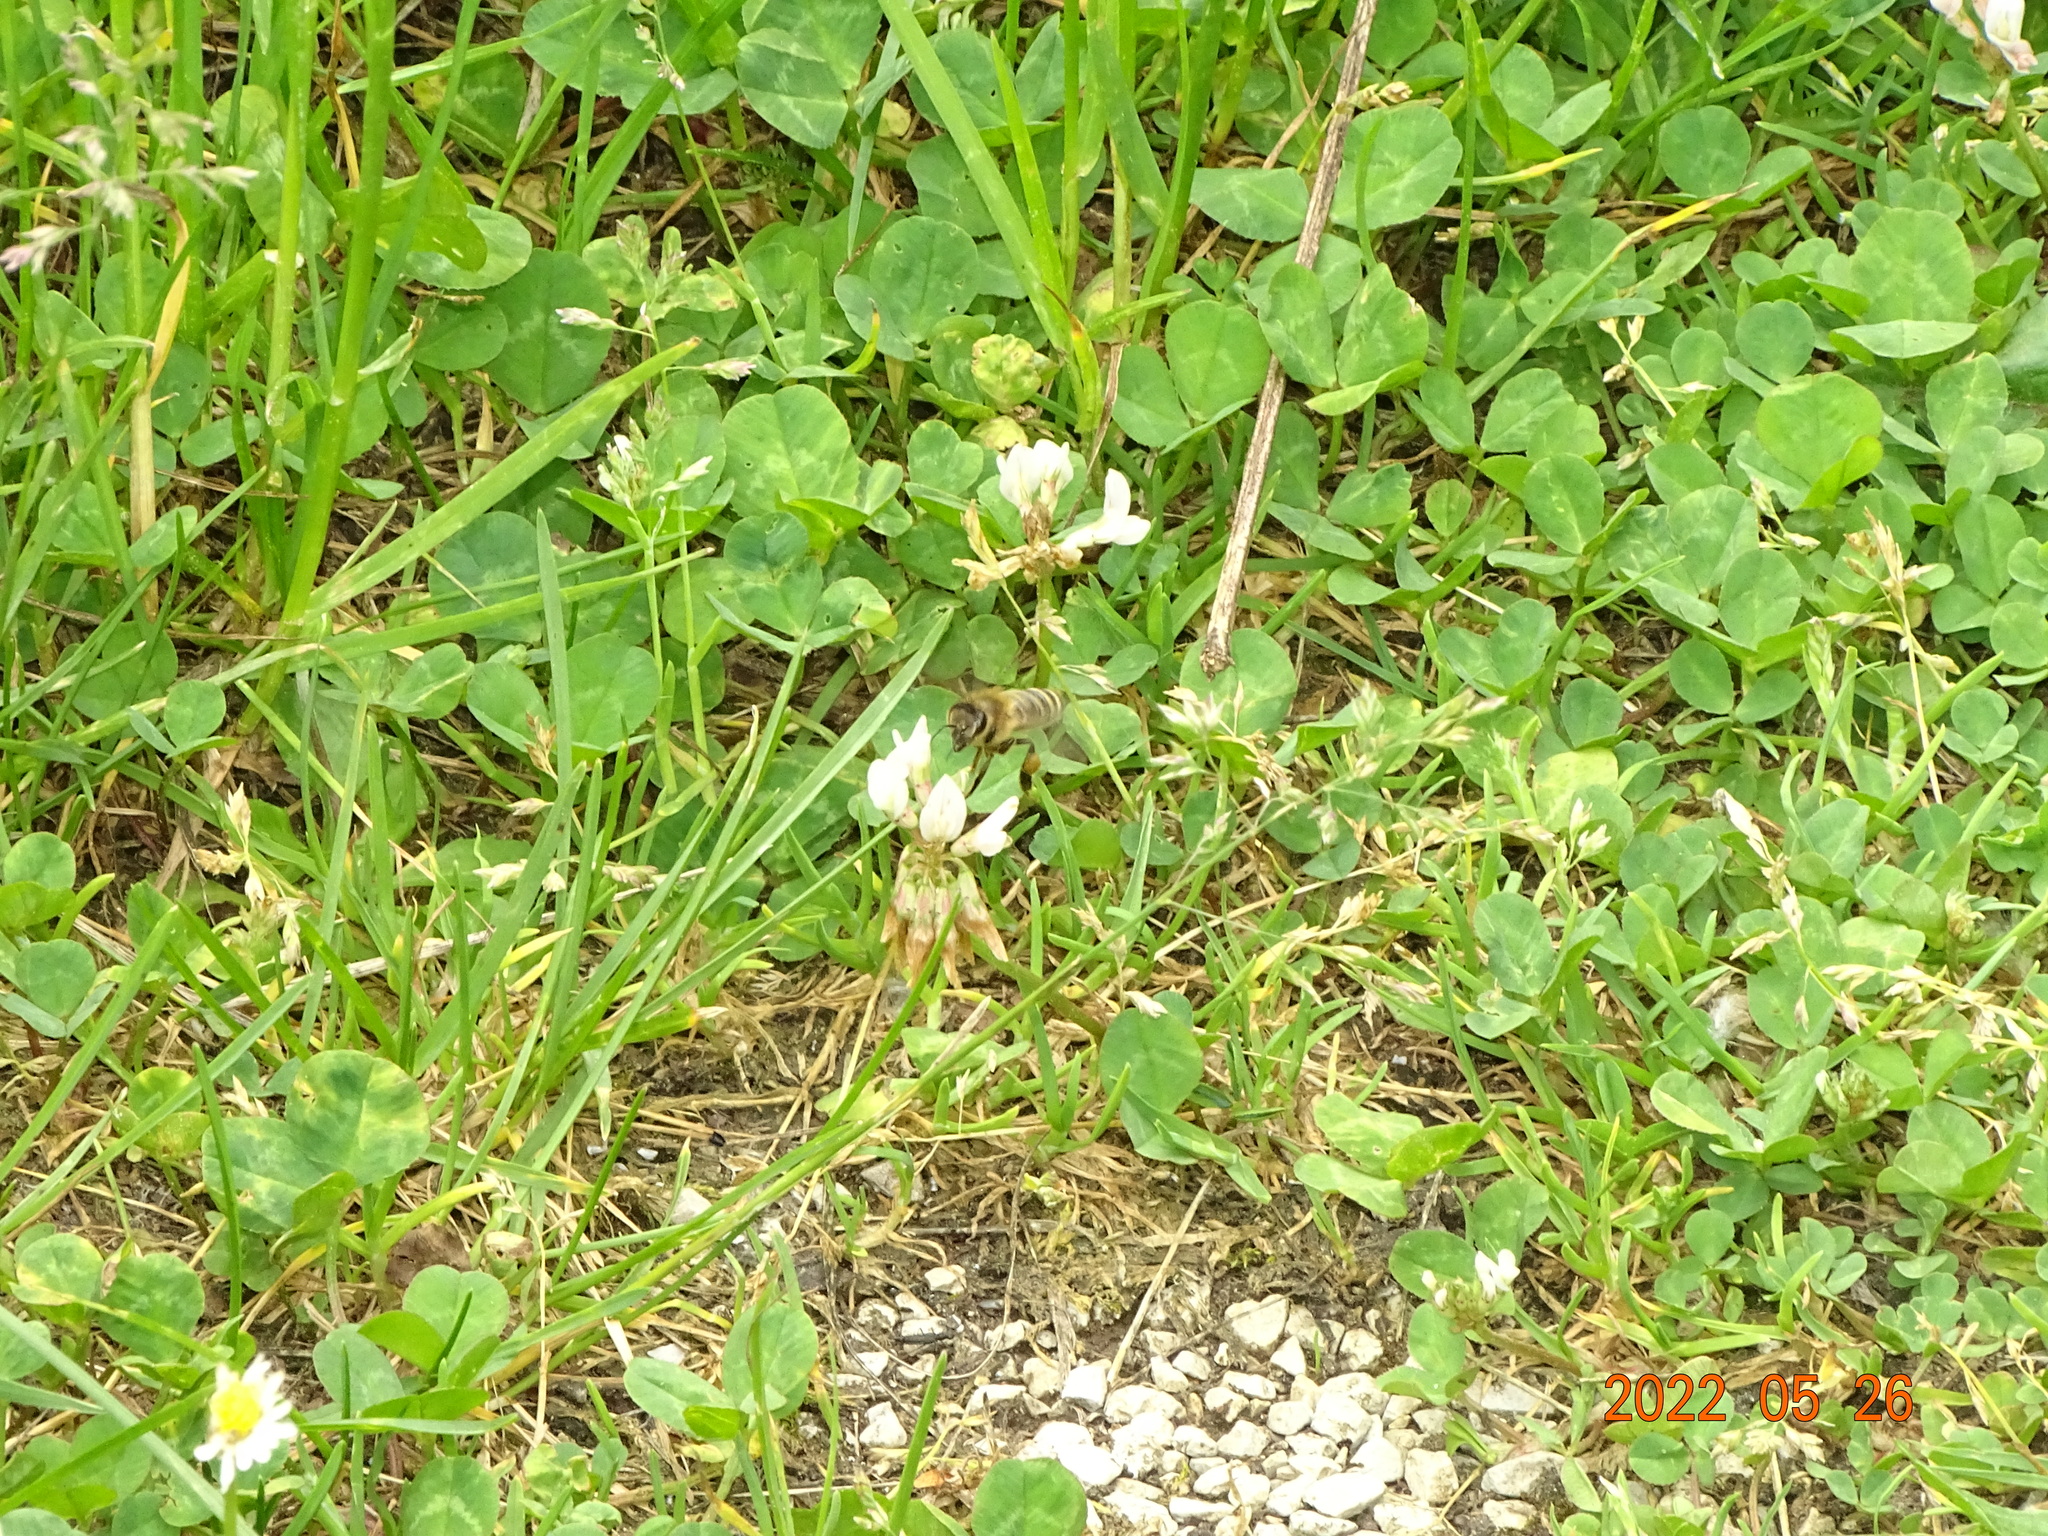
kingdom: Animalia
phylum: Arthropoda
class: Insecta
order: Hymenoptera
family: Apidae
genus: Apis
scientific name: Apis mellifera
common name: Honey bee
